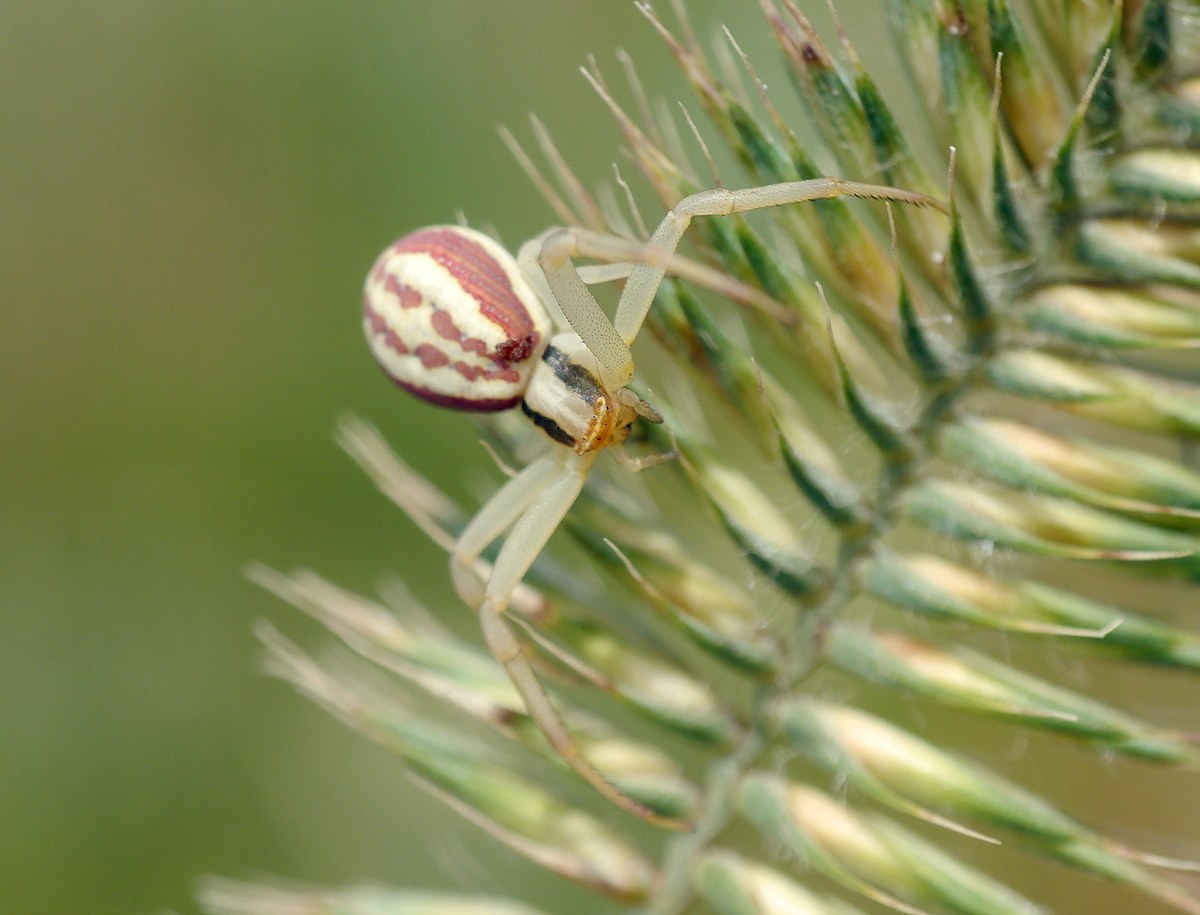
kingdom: Animalia
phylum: Arthropoda
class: Arachnida
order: Araneae
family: Thomisidae
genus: Runcinia
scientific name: Runcinia grammica
